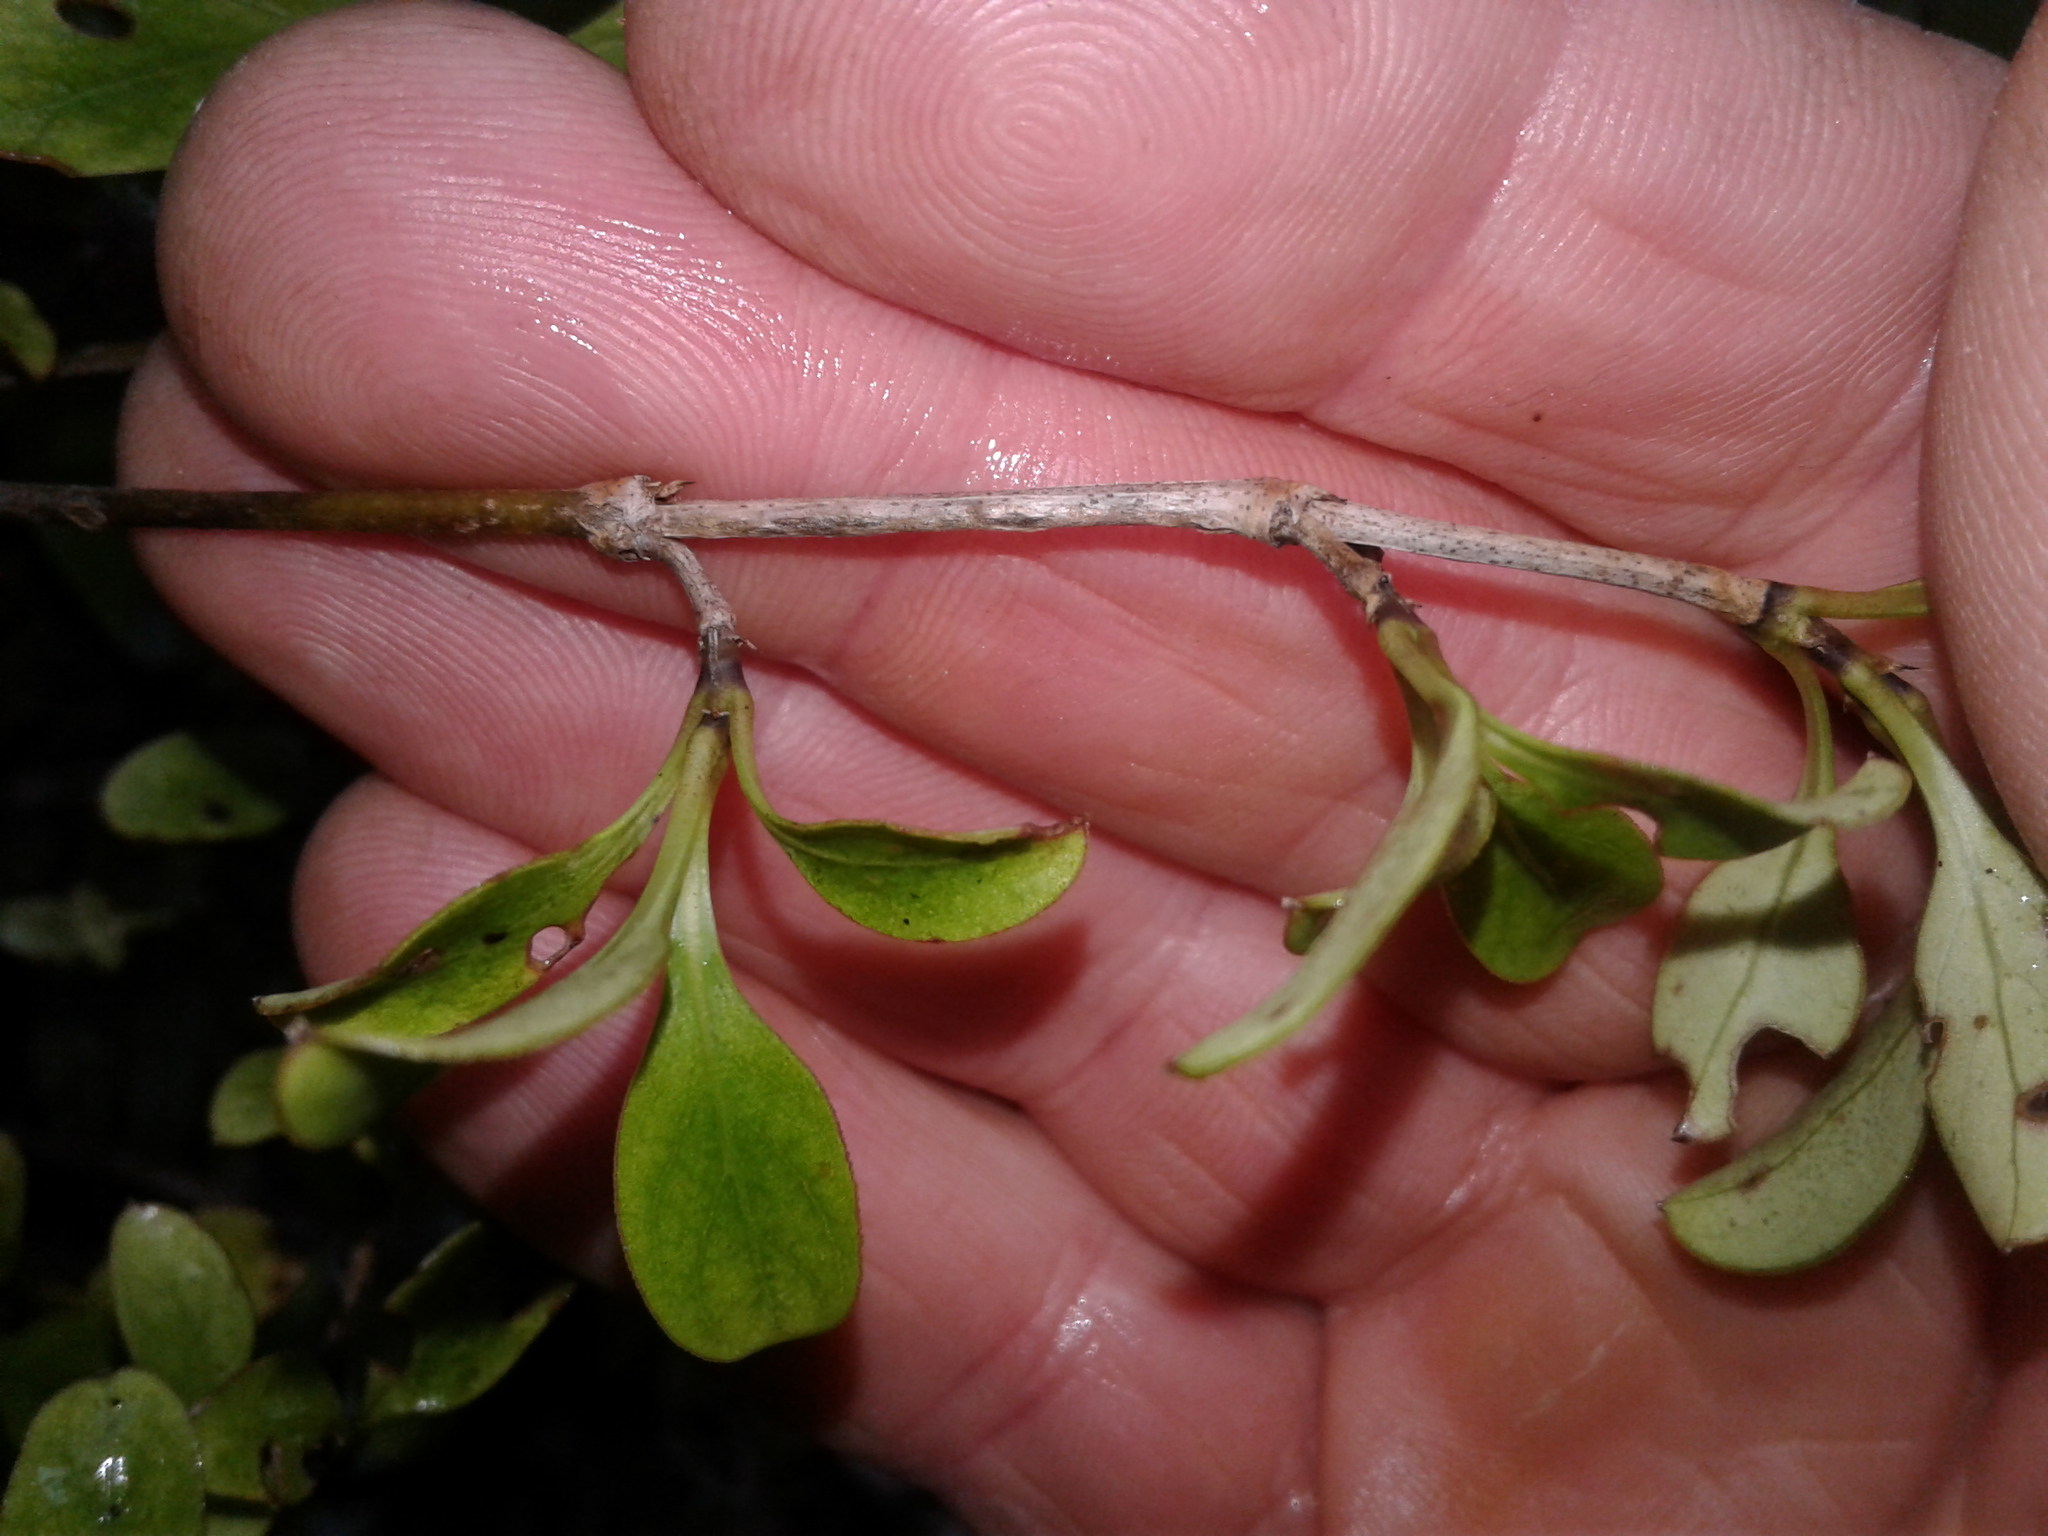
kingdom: Plantae
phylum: Tracheophyta
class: Magnoliopsida
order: Gentianales
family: Rubiaceae
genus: Coprosma
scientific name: Coprosma foetidissima
